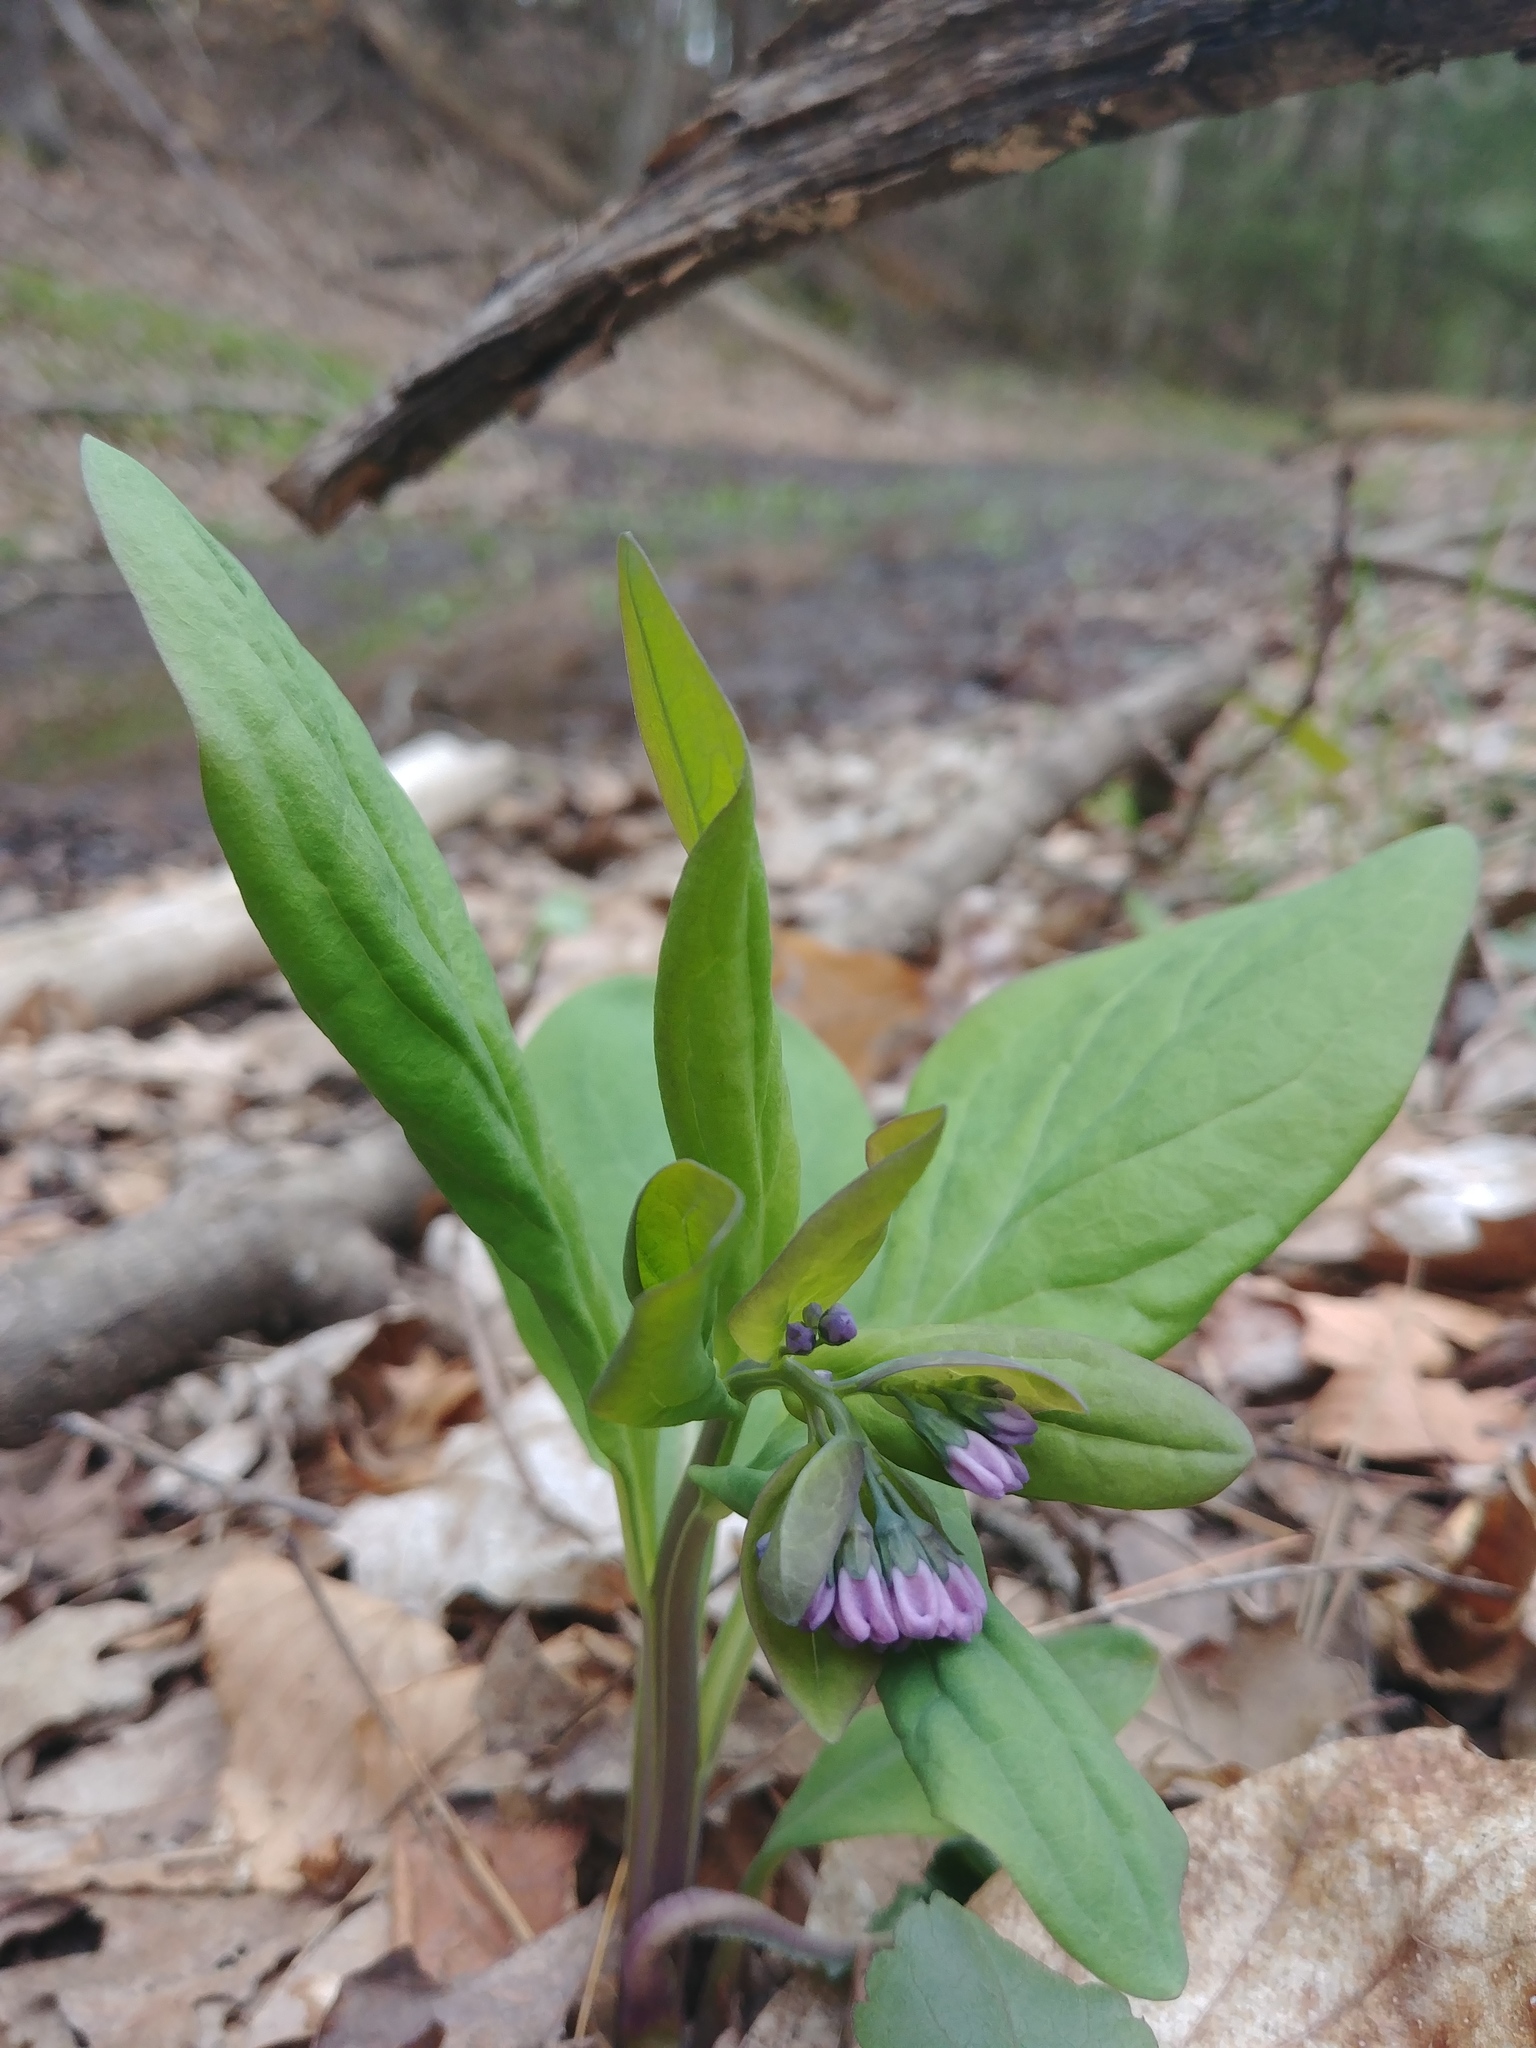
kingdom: Plantae
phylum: Tracheophyta
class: Magnoliopsida
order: Boraginales
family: Boraginaceae
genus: Mertensia
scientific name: Mertensia virginica
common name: Virginia bluebells
